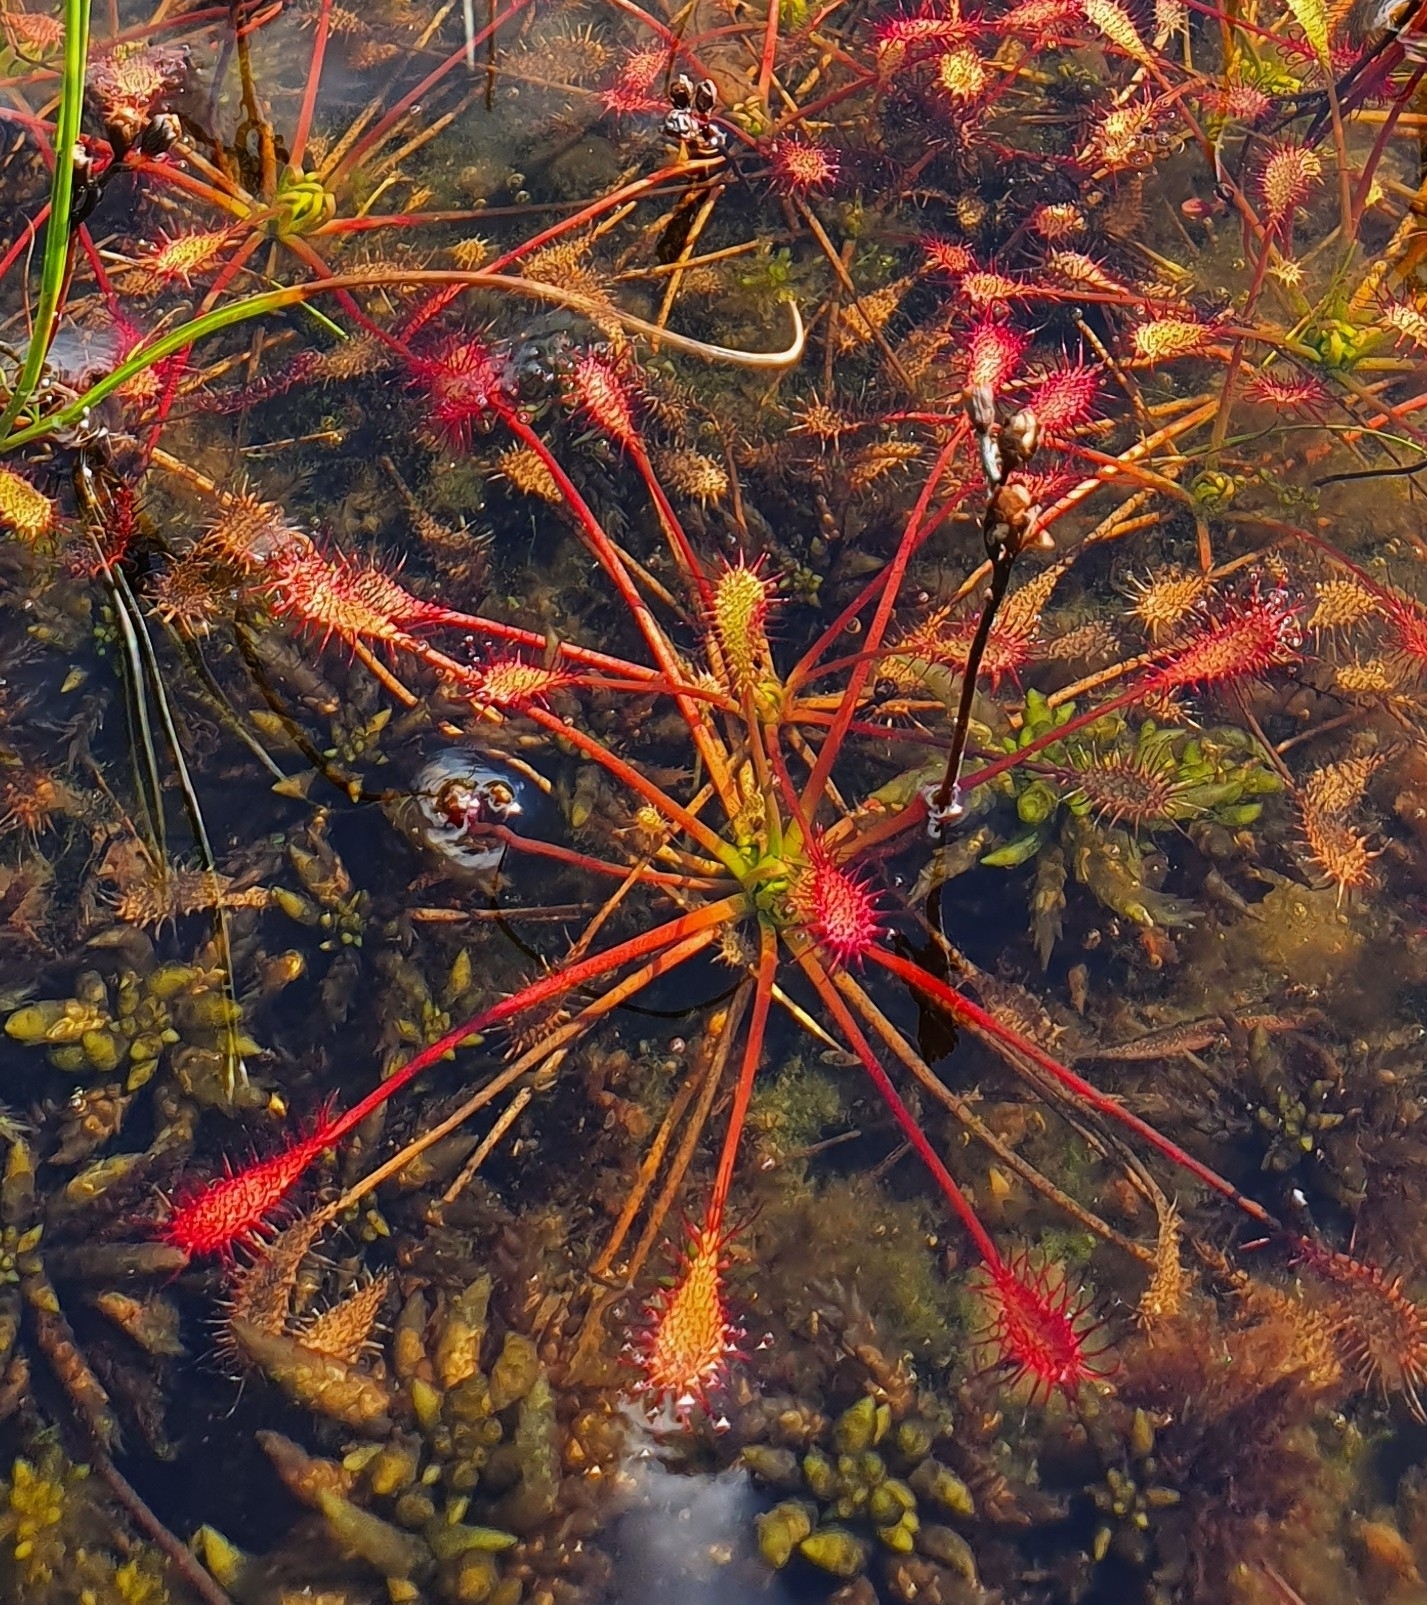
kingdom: Plantae
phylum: Tracheophyta
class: Magnoliopsida
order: Caryophyllales
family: Droseraceae
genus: Drosera
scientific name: Drosera intermedia
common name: Oblong-leaved sundew
